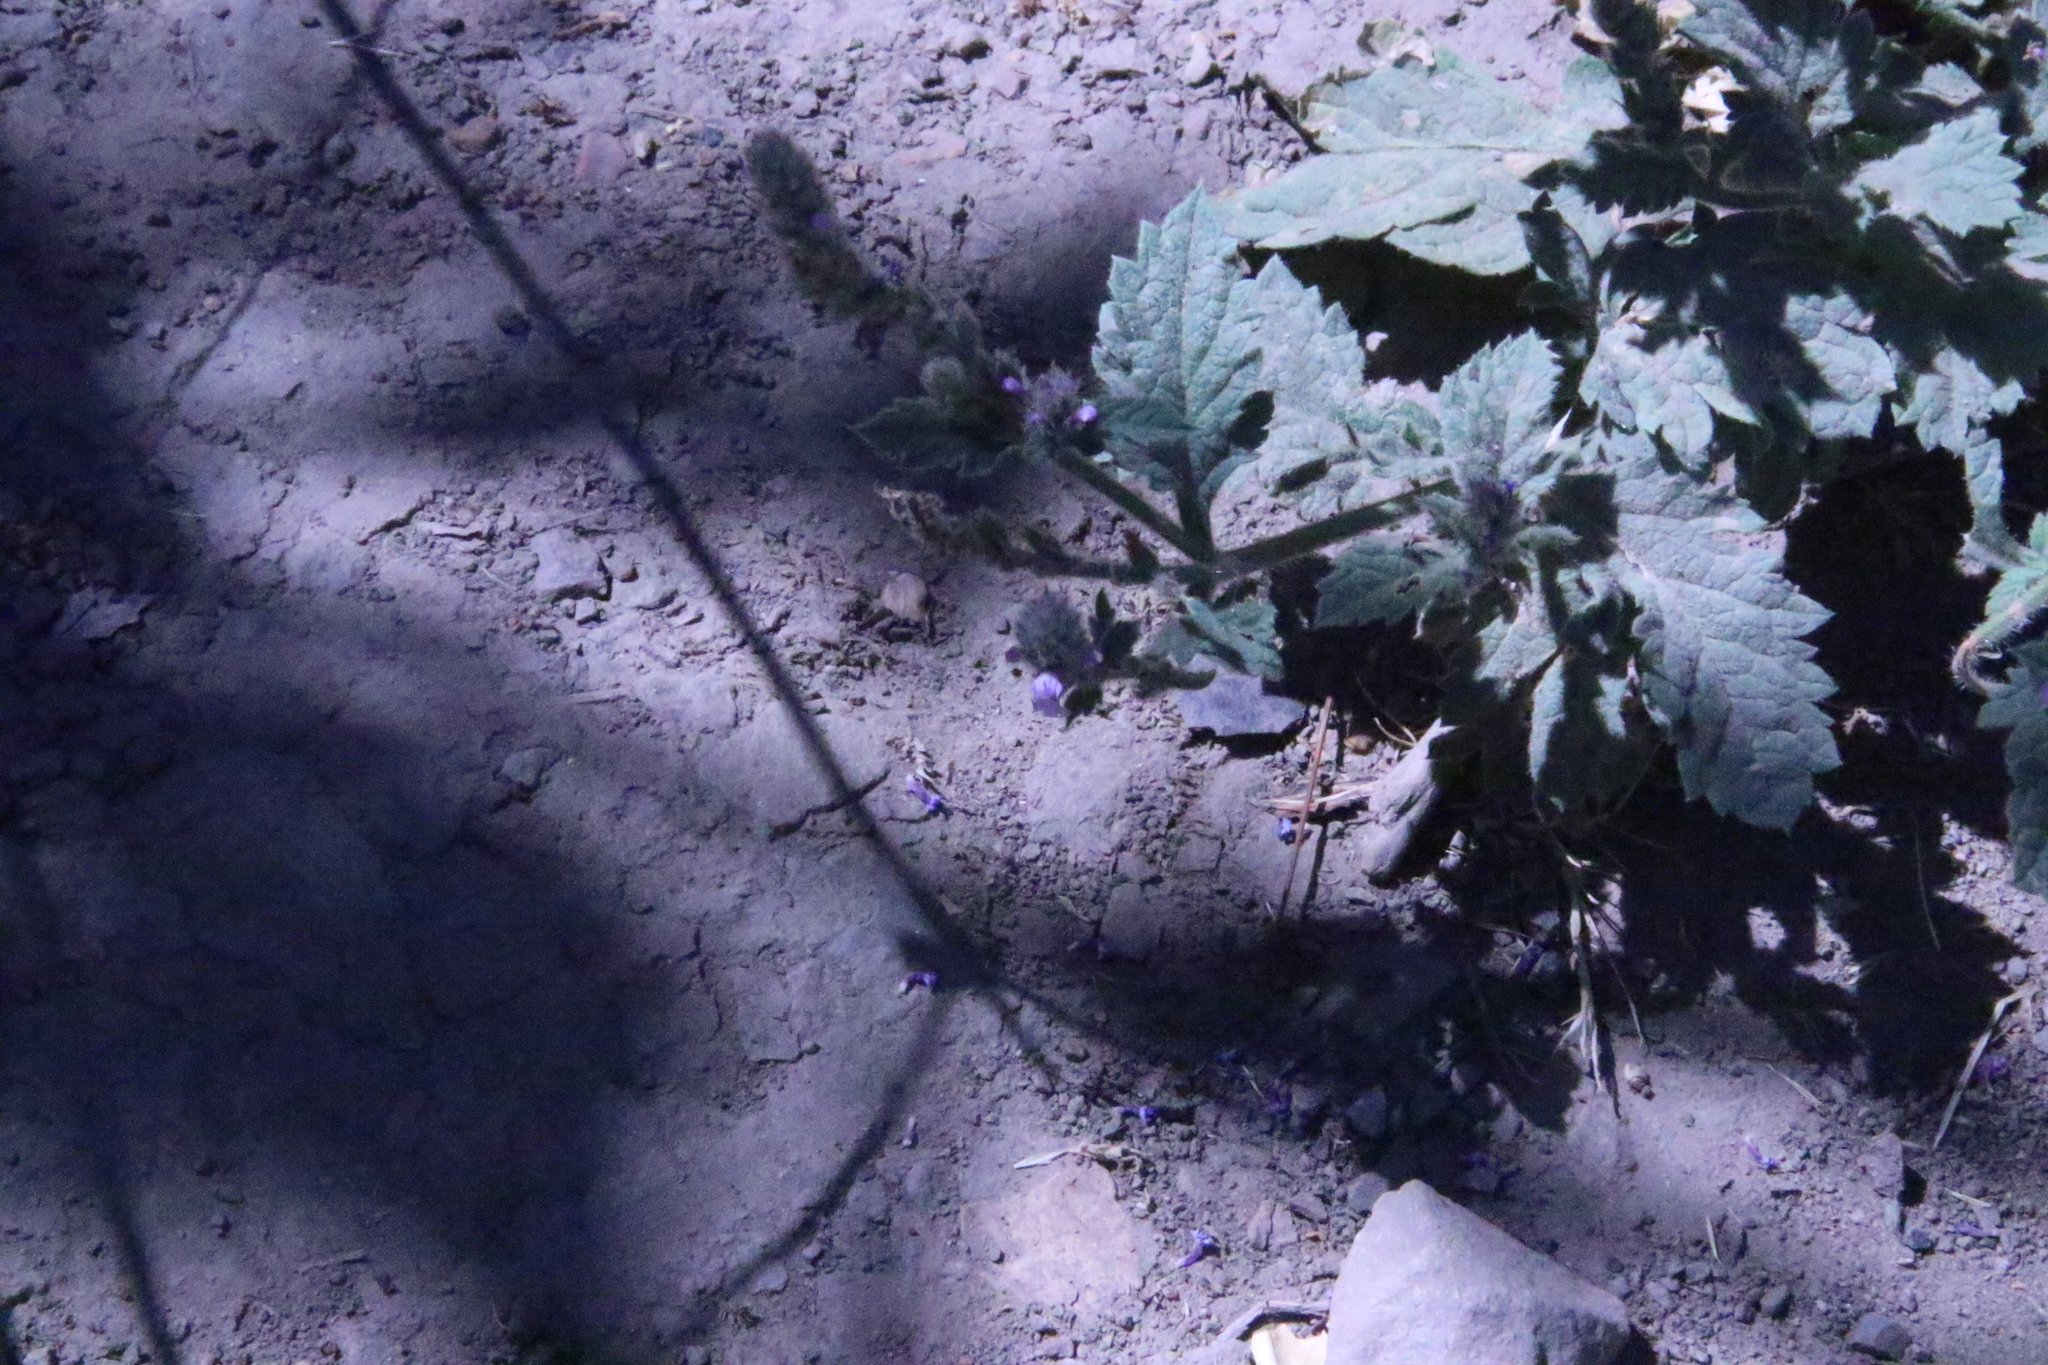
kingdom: Plantae
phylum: Tracheophyta
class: Magnoliopsida
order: Lamiales
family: Verbenaceae
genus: Verbena
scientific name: Verbena lasiostachys
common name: Vervain
